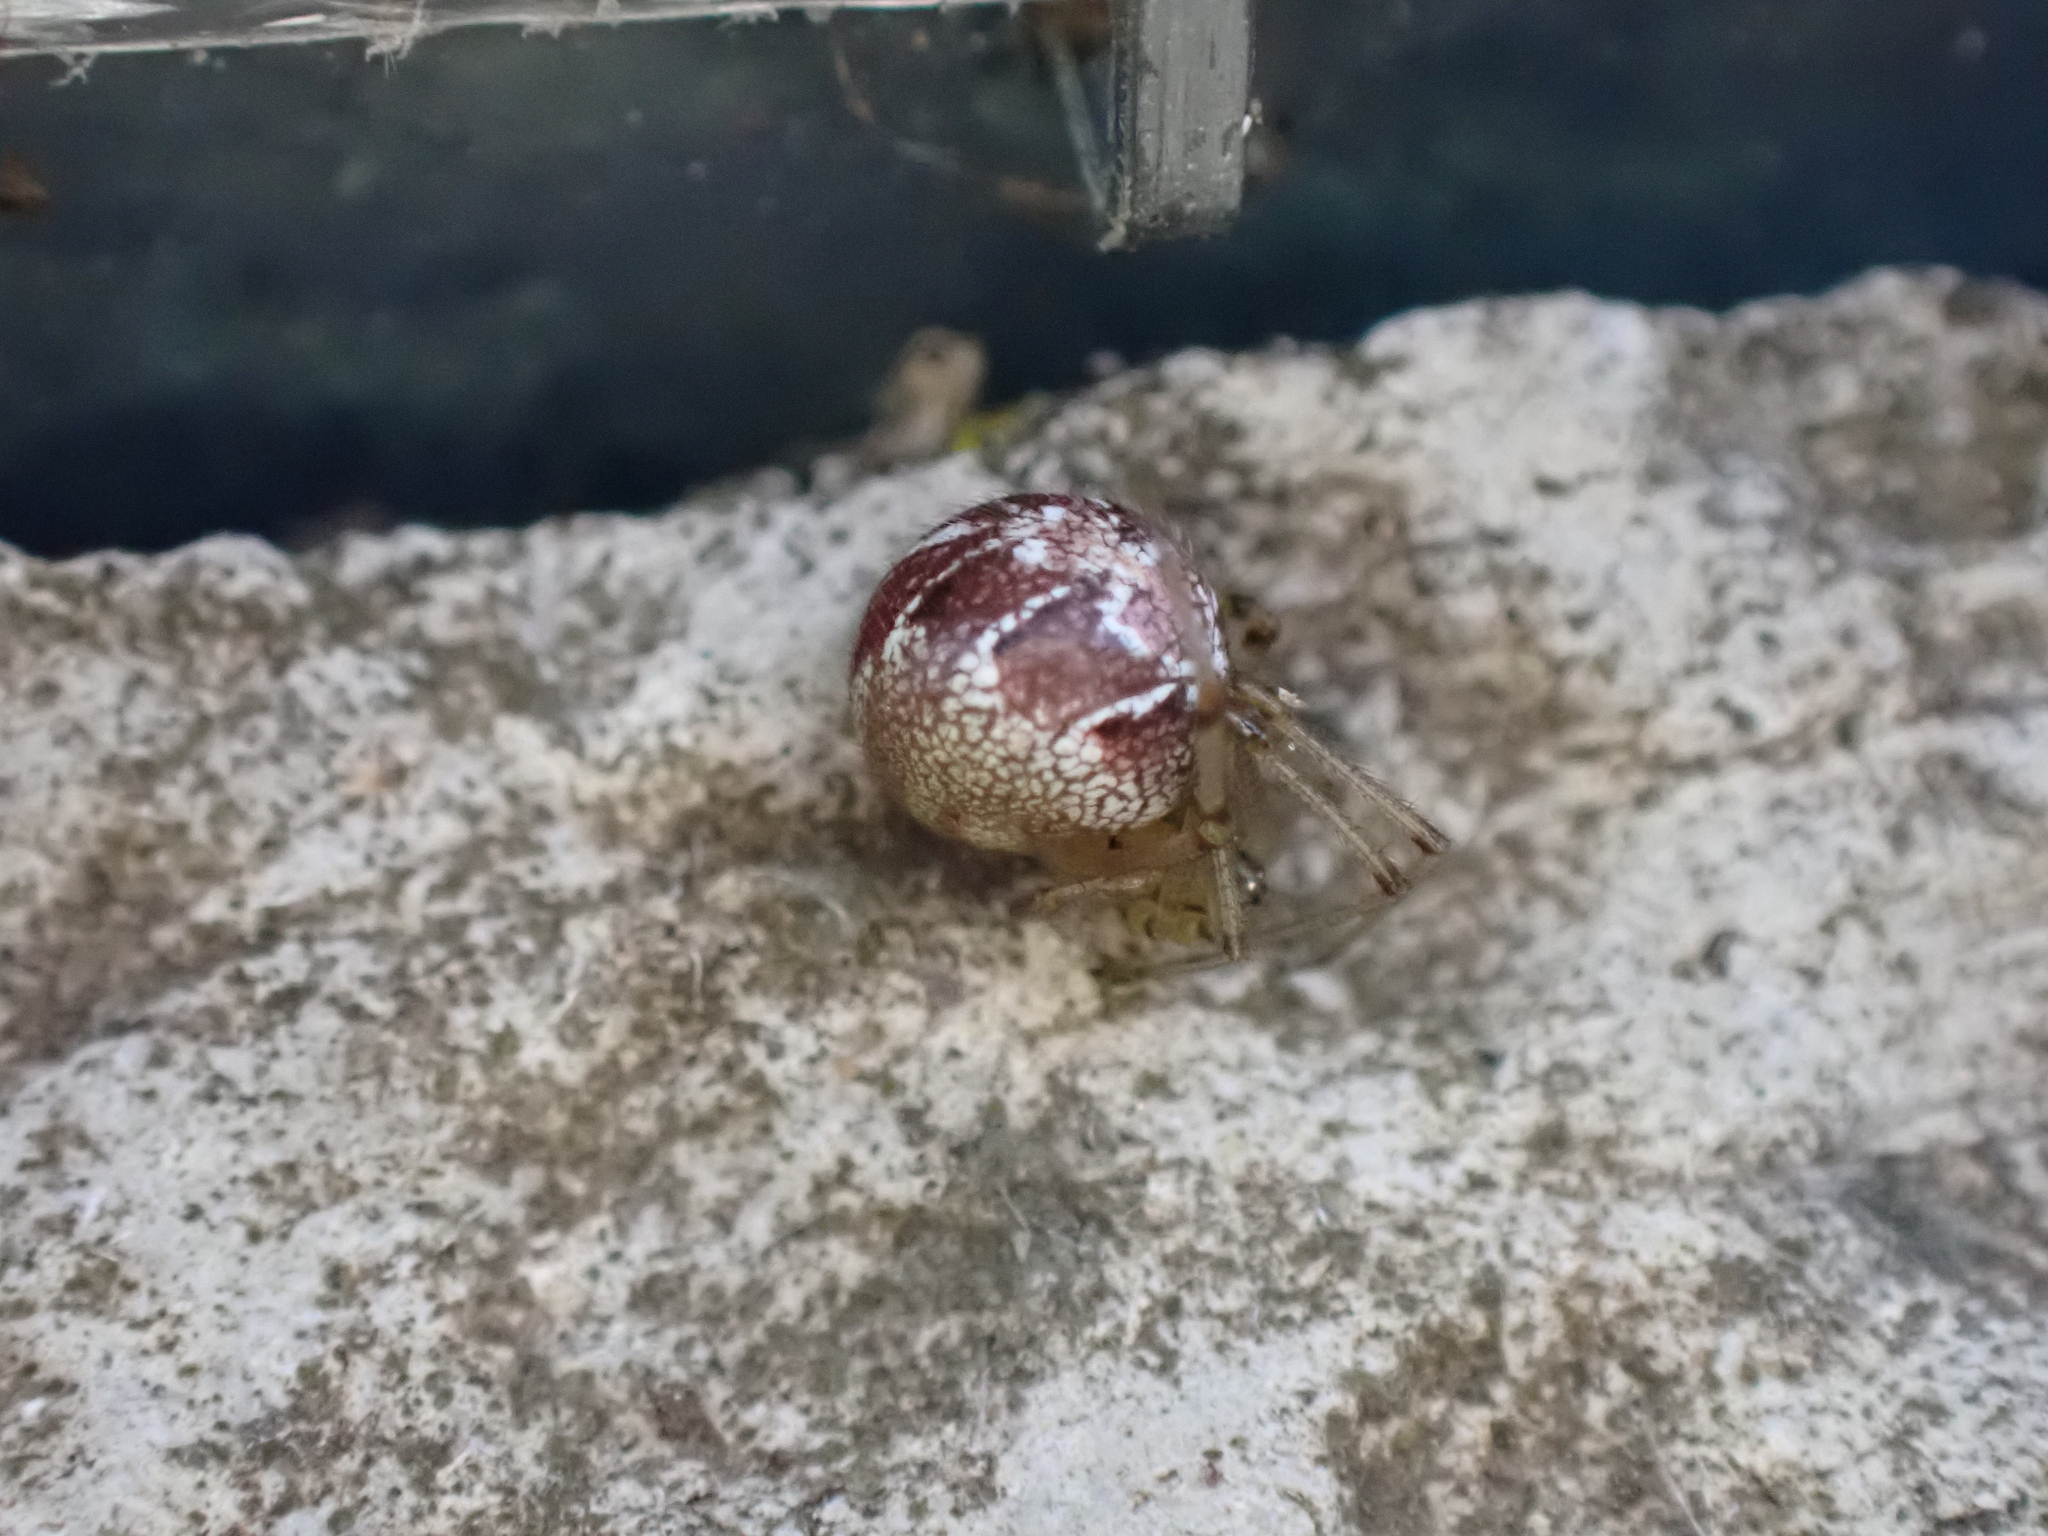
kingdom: Animalia
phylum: Arthropoda
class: Arachnida
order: Araneae
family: Theridiidae
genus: Phylloneta
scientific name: Phylloneta
